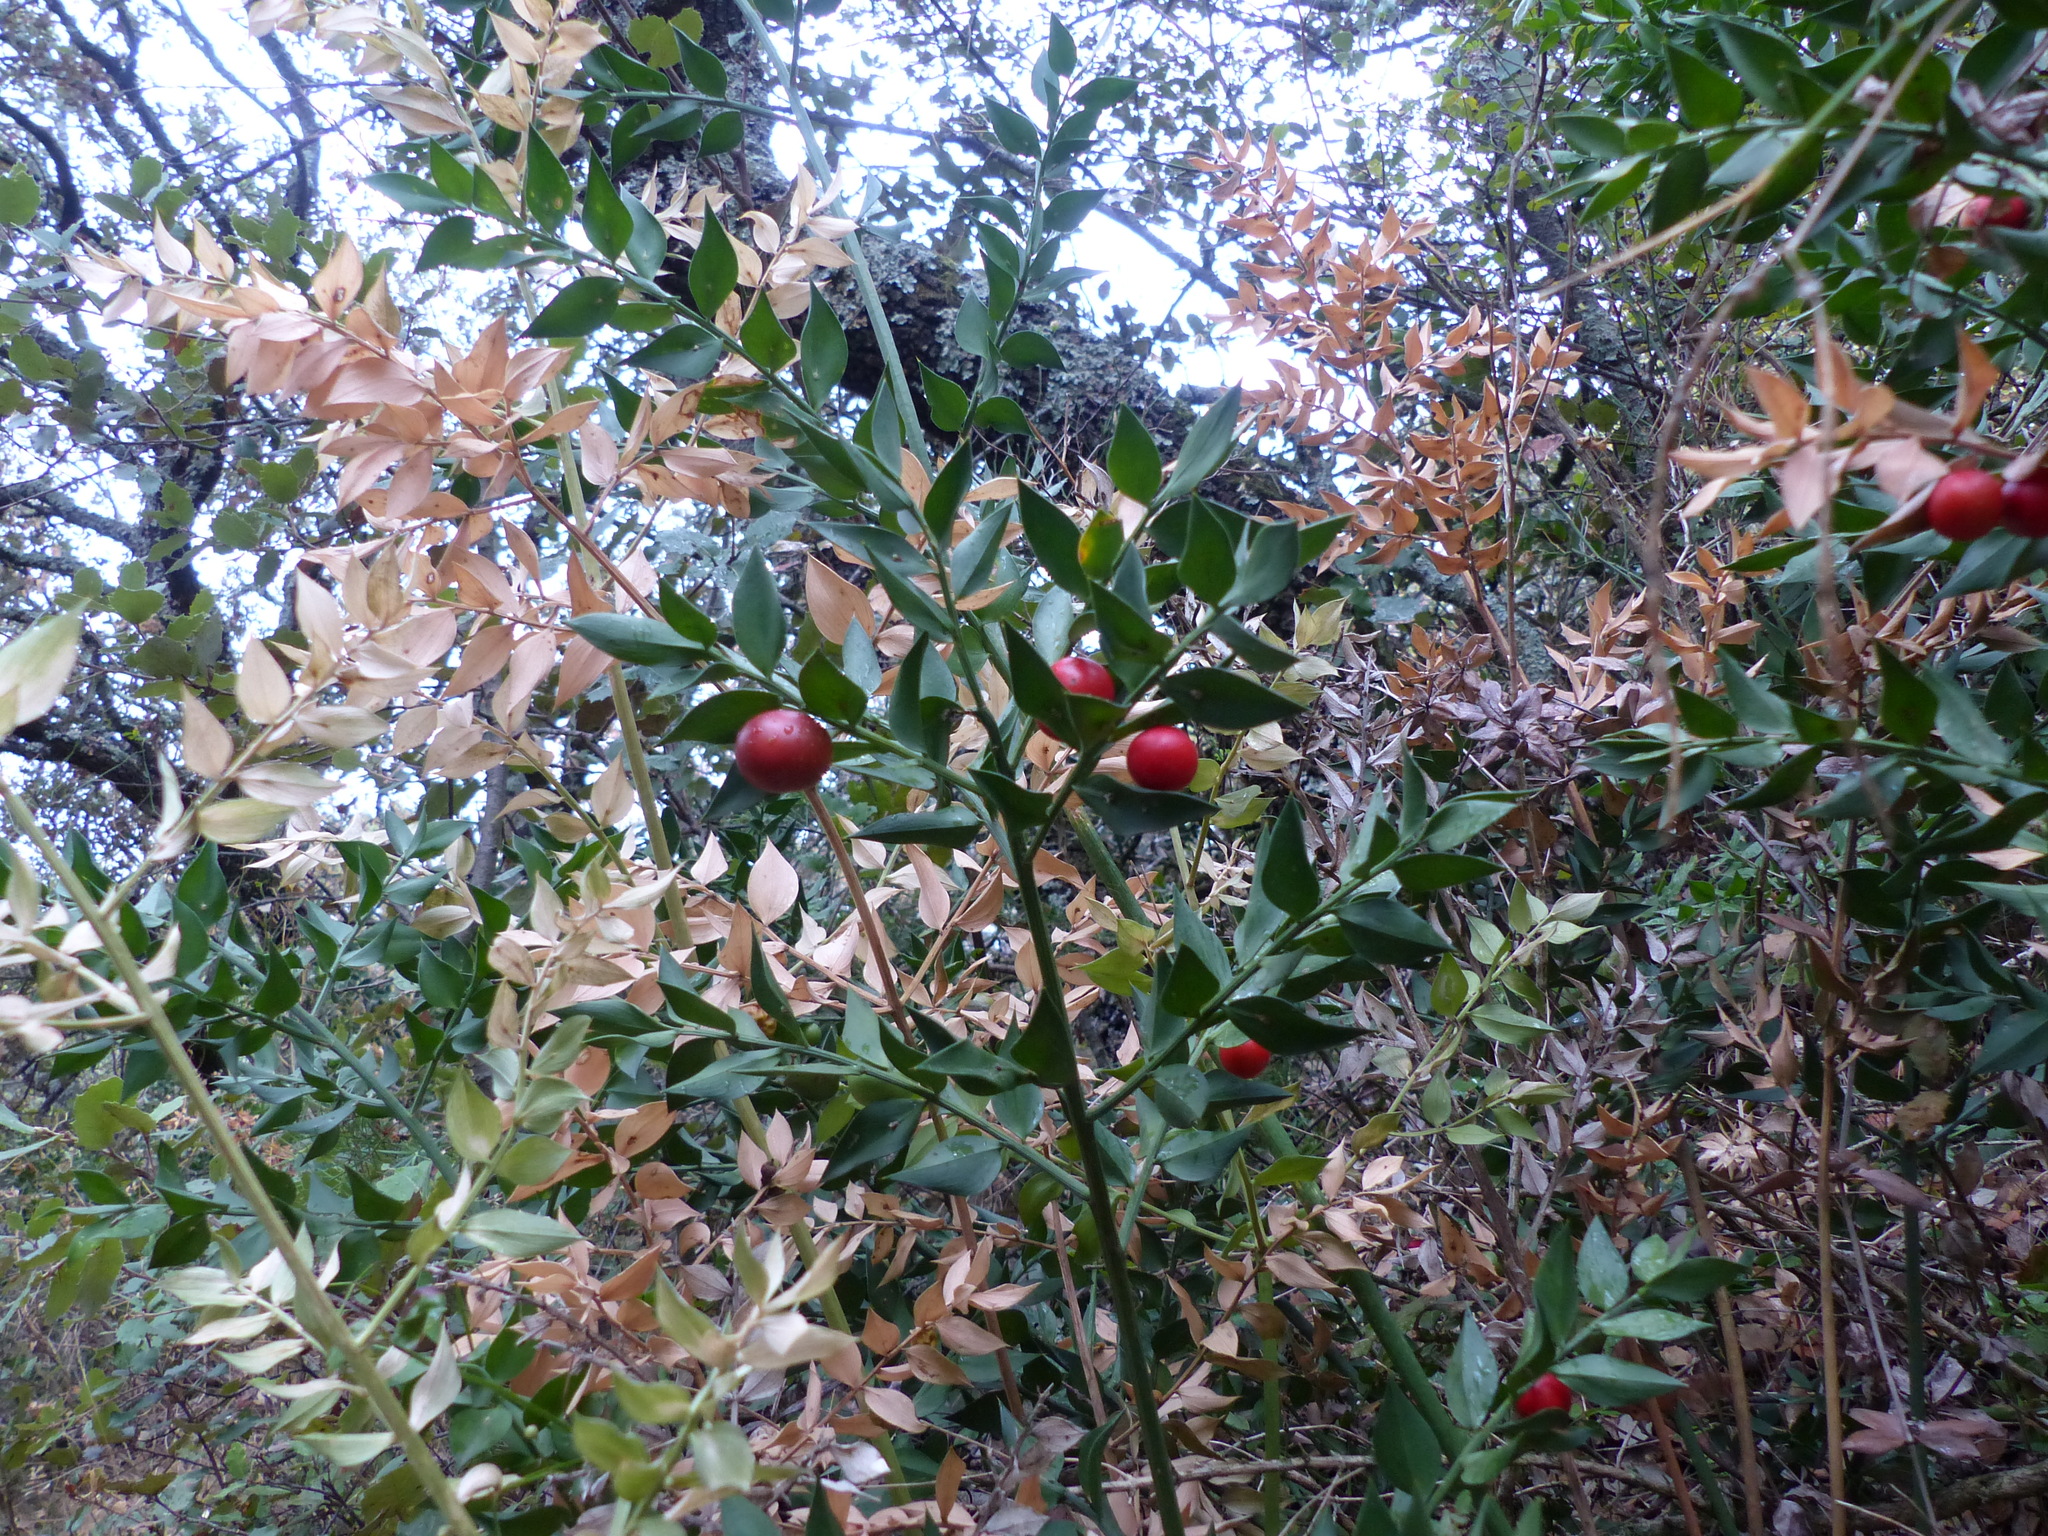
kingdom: Plantae
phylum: Tracheophyta
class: Liliopsida
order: Asparagales
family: Asparagaceae
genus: Ruscus
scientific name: Ruscus aculeatus
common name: Butcher's-broom
